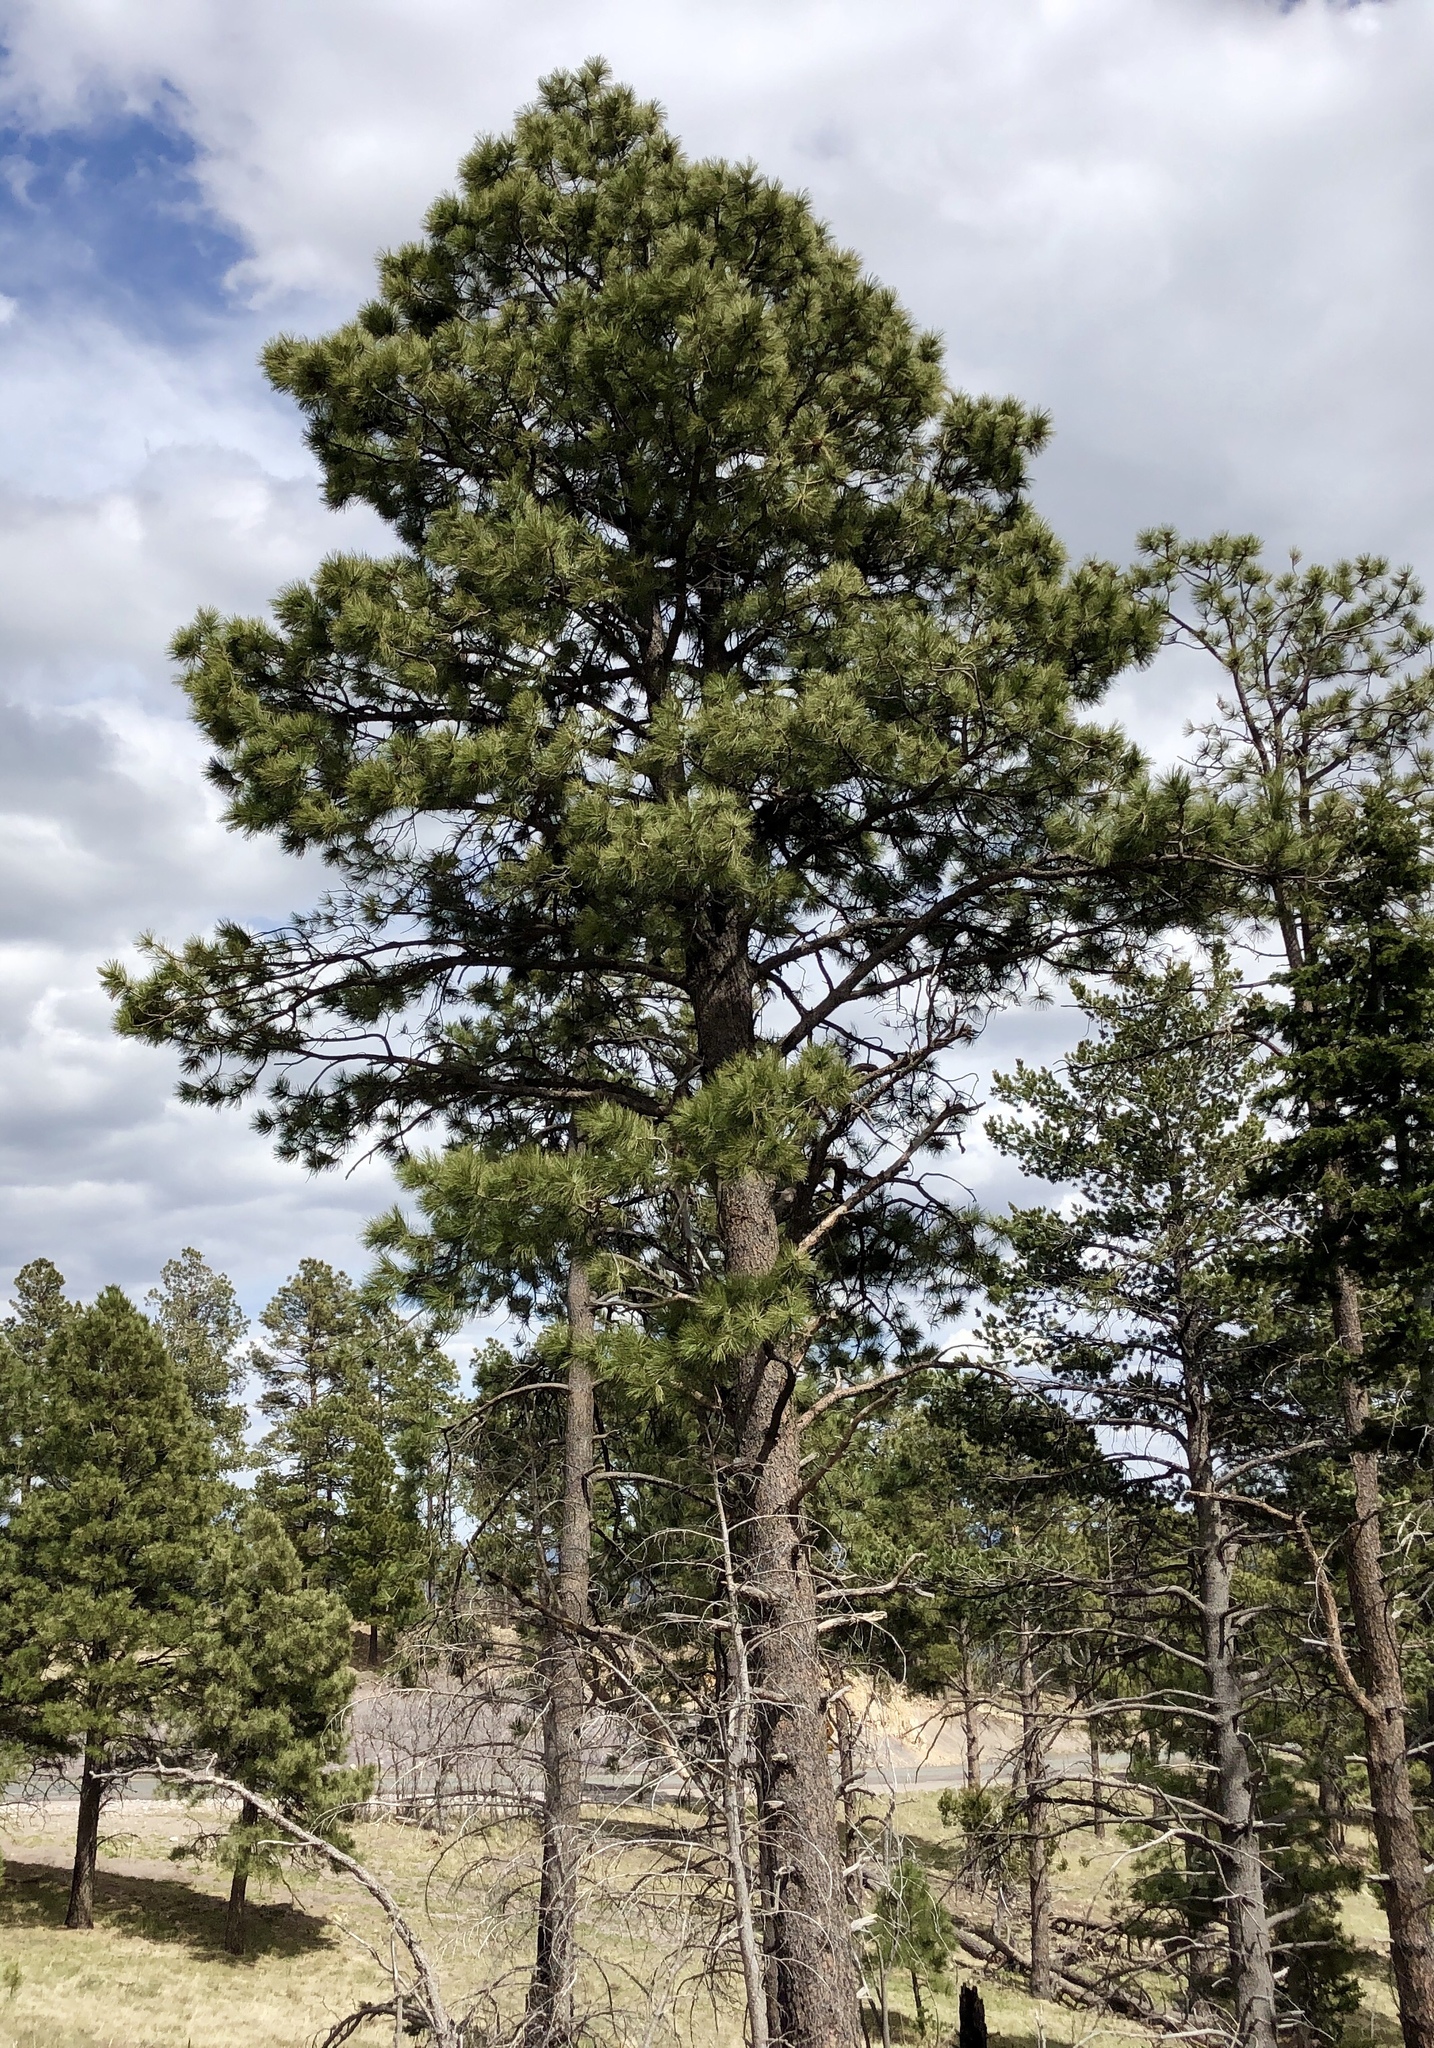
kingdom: Plantae
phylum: Tracheophyta
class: Pinopsida
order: Pinales
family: Pinaceae
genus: Pinus
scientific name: Pinus ponderosa
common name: Western yellow-pine
